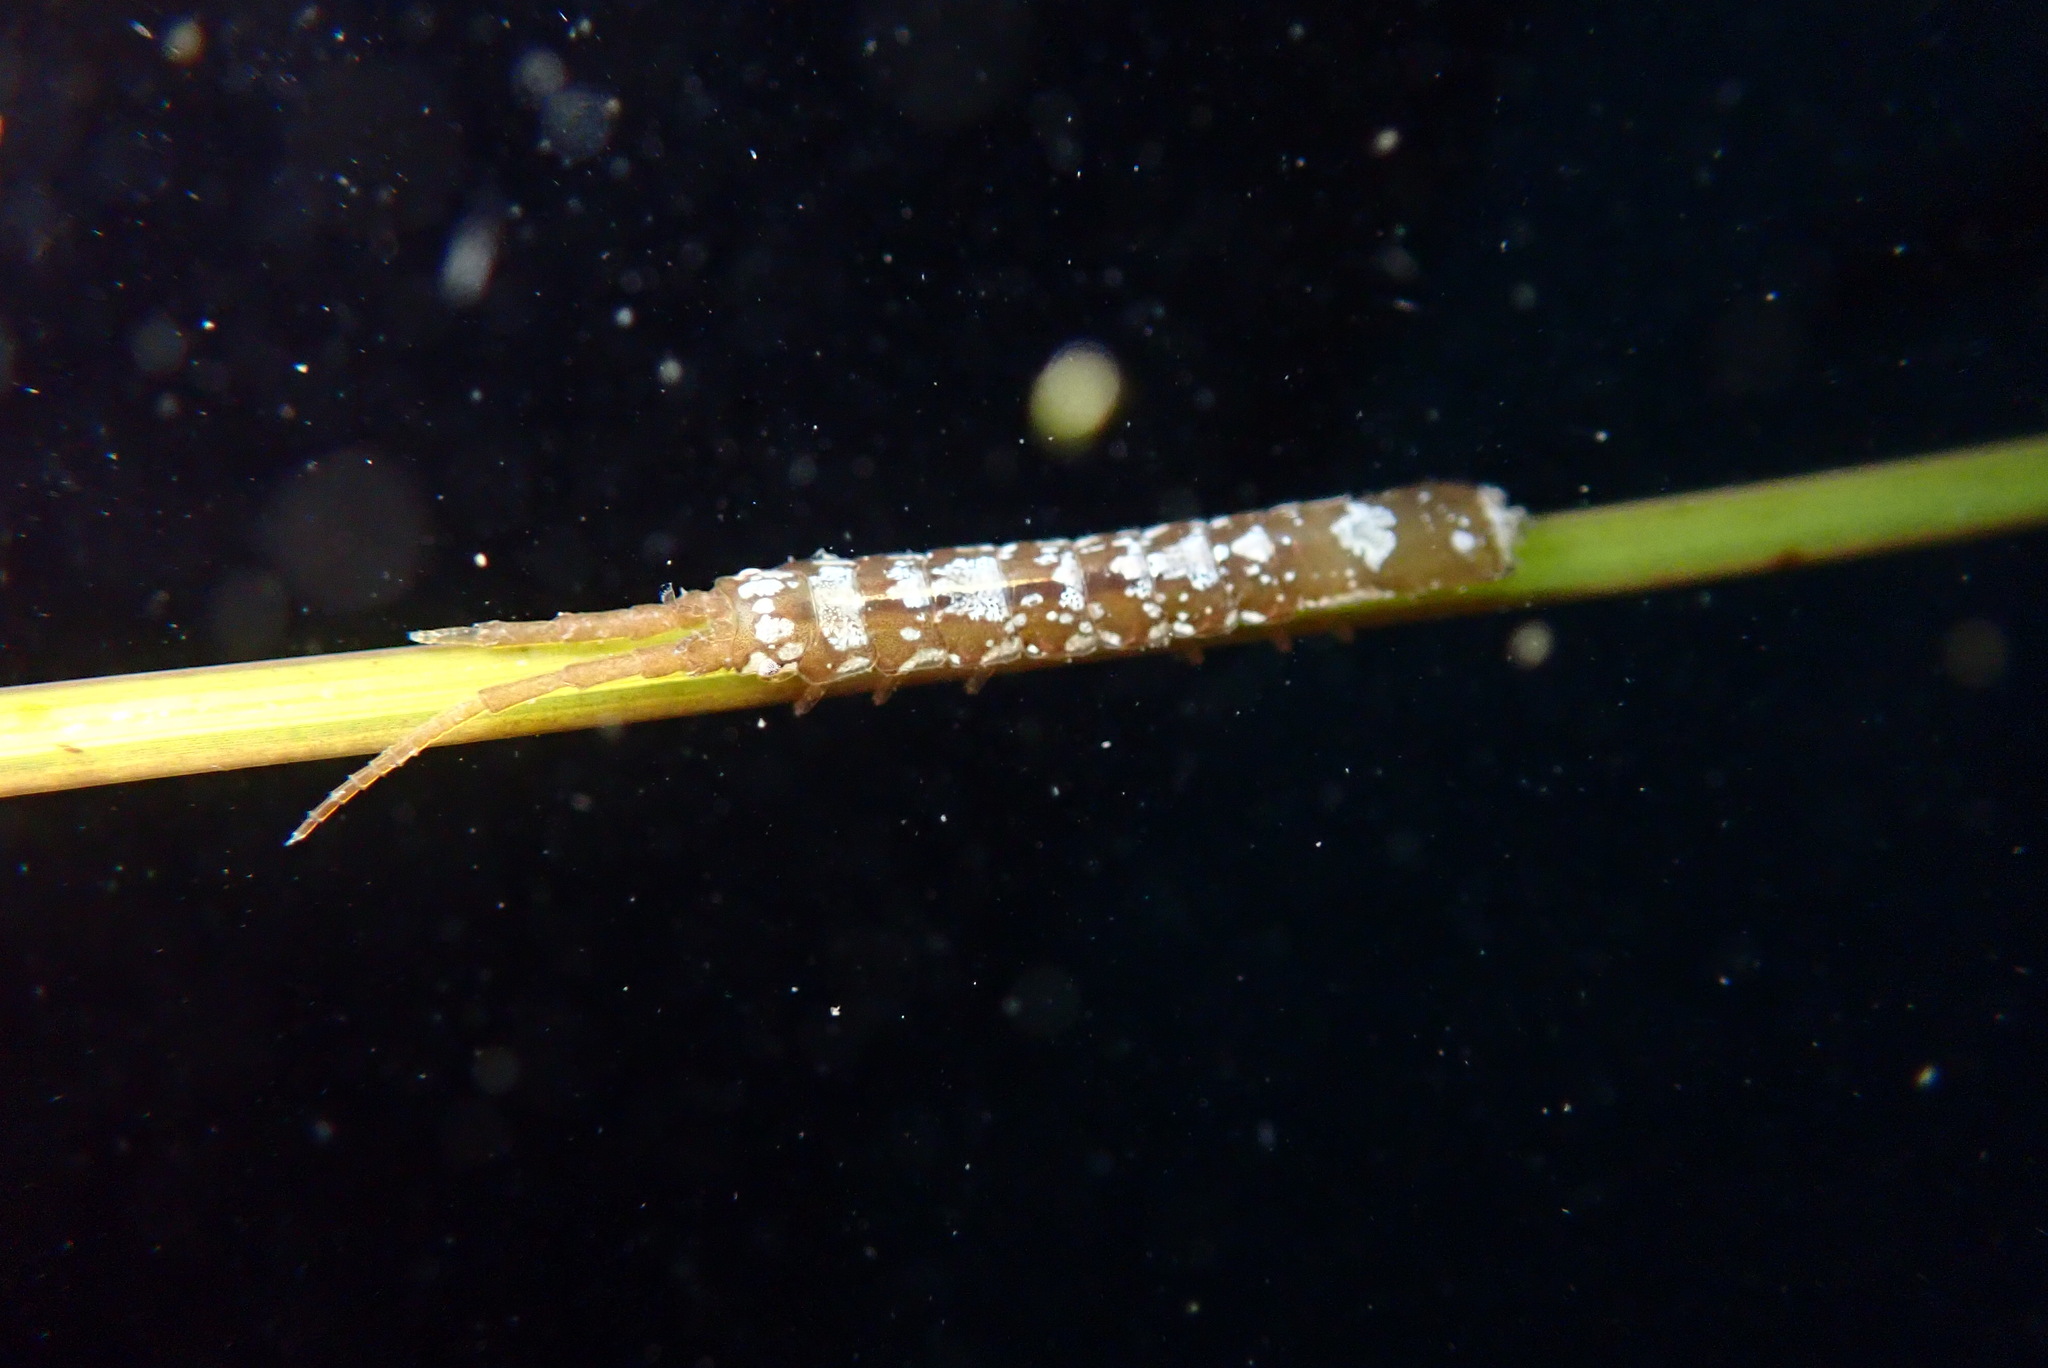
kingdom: Animalia
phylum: Arthropoda
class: Malacostraca
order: Isopoda
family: Idoteidae
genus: Idotea
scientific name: Idotea fewkesi
